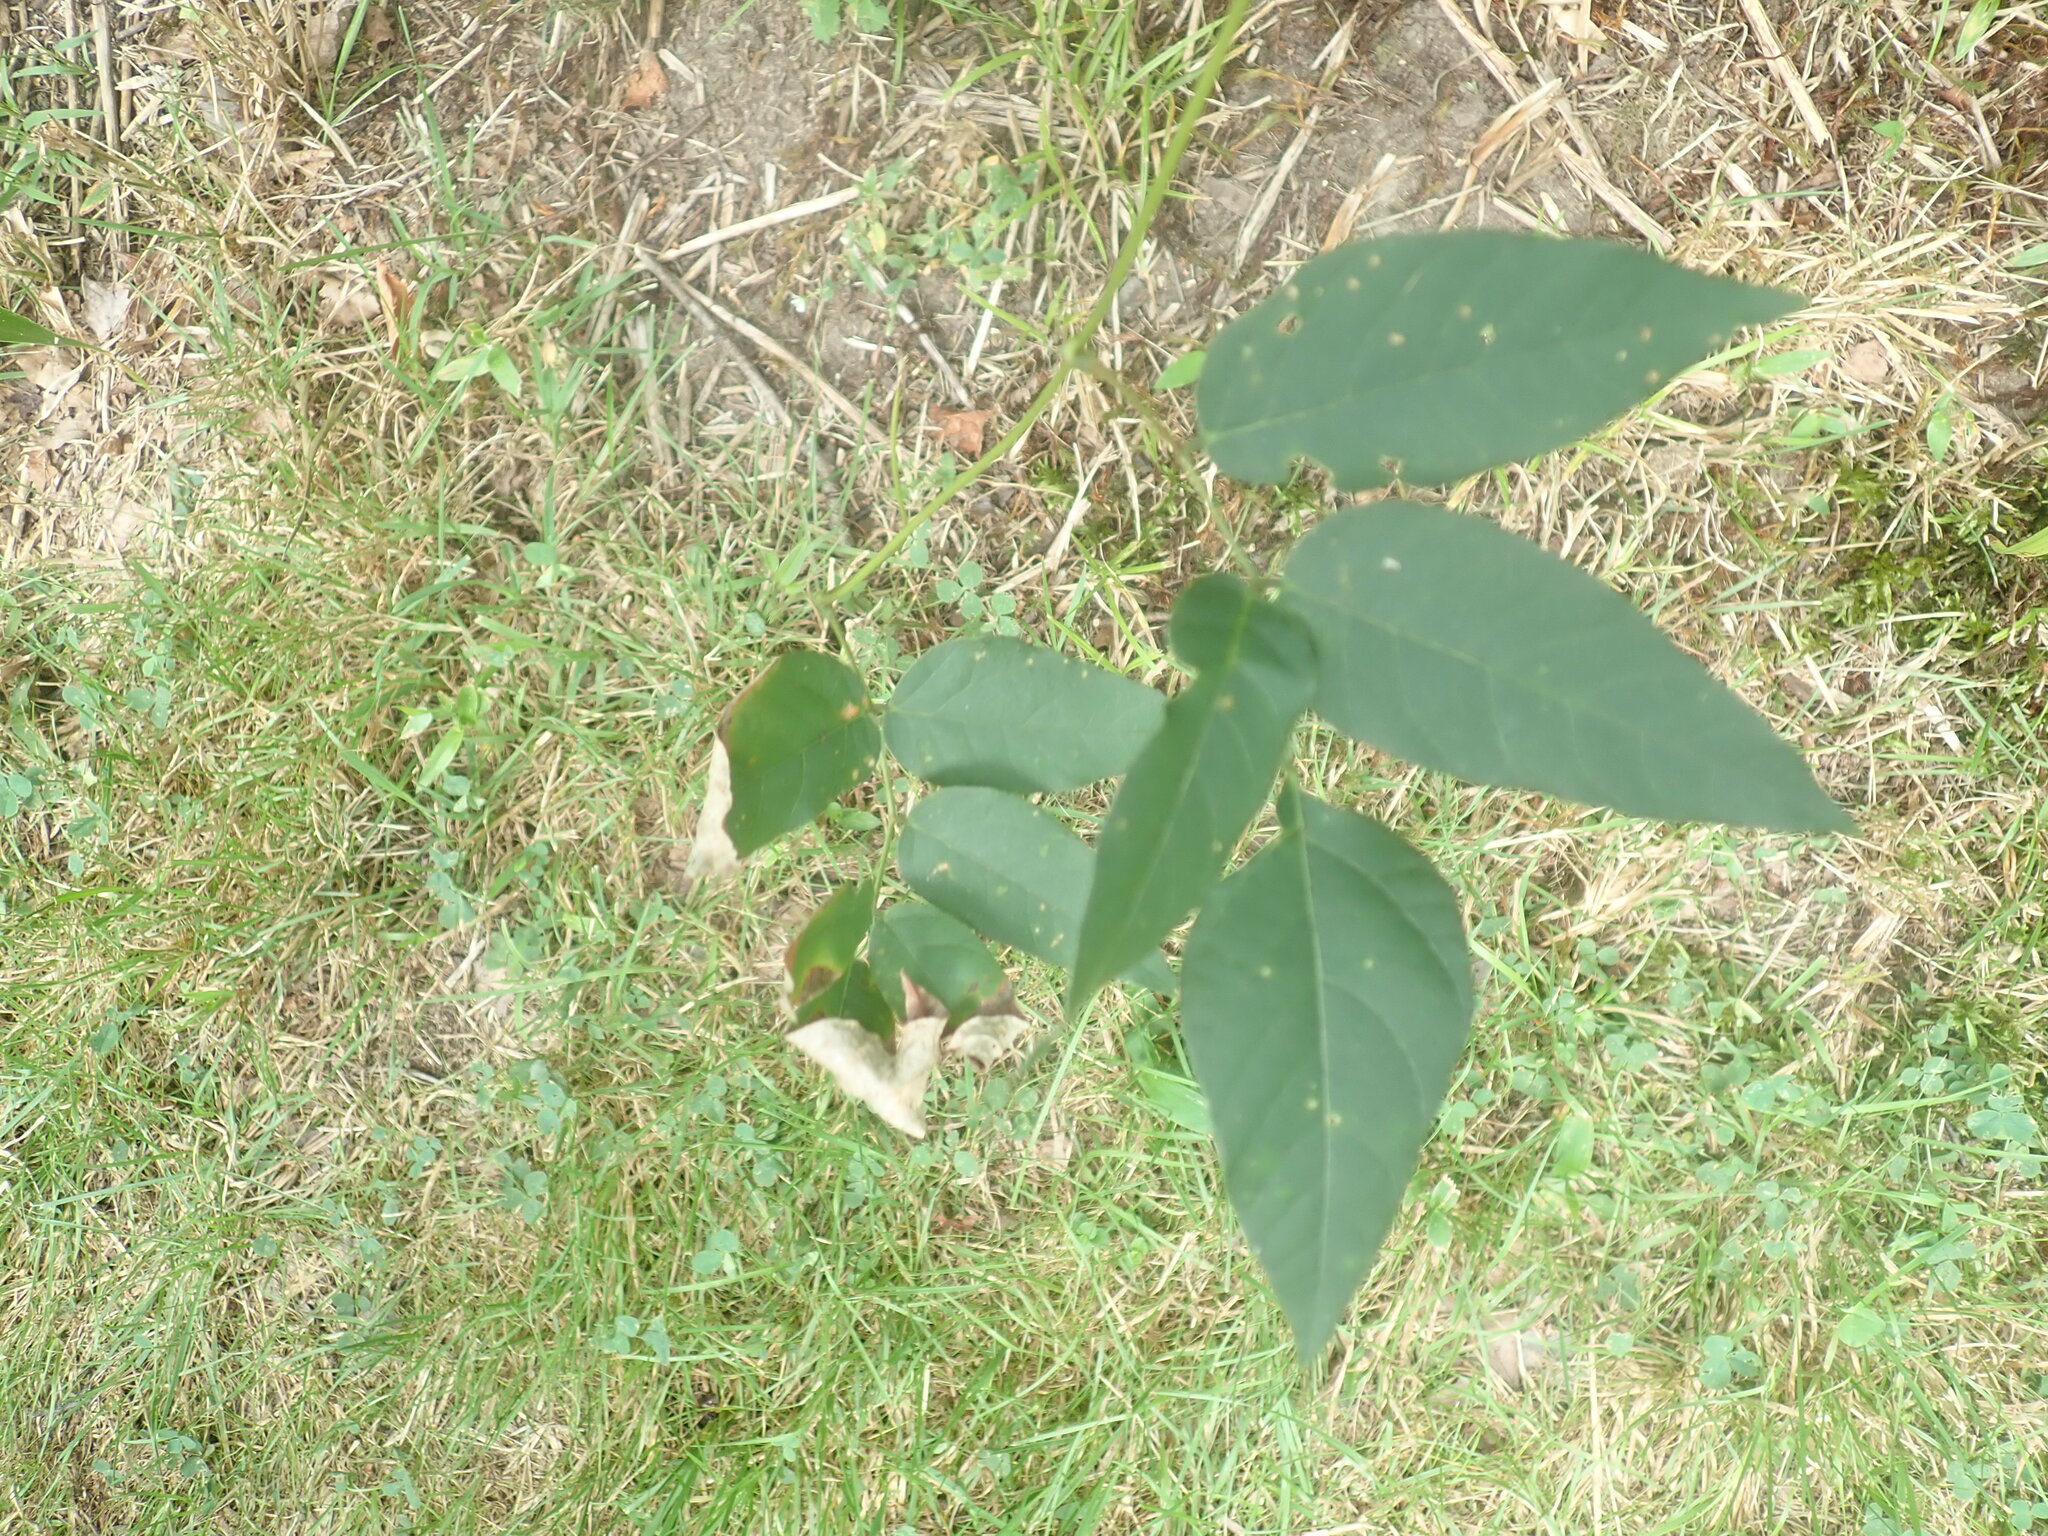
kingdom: Plantae
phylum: Tracheophyta
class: Magnoliopsida
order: Fabales
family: Fabaceae
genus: Apios
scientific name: Apios americana
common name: American potato-bean
